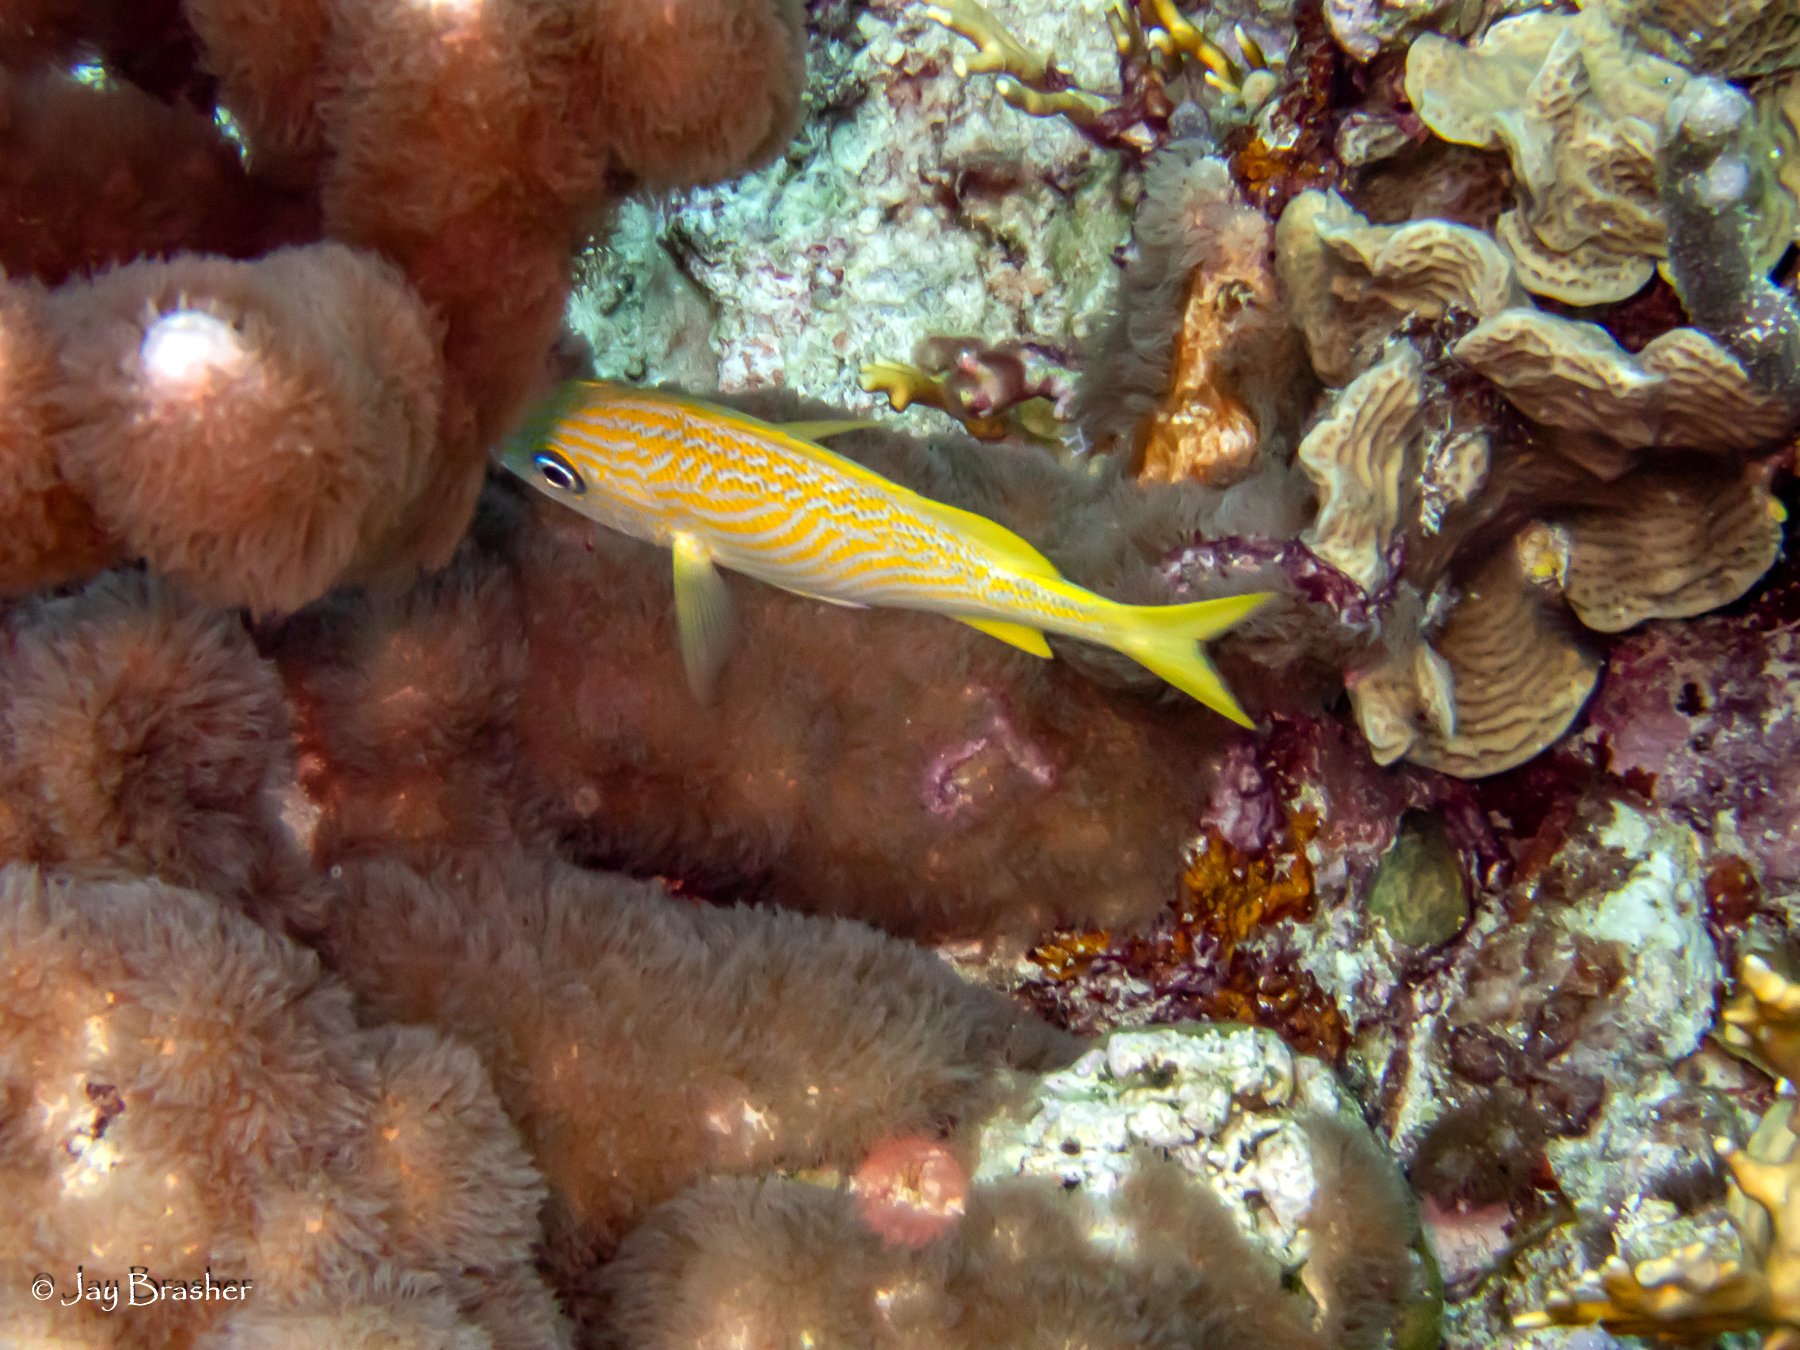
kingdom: Animalia
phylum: Chordata
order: Perciformes
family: Haemulidae
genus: Haemulon
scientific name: Haemulon flavolineatum
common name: French grunt
